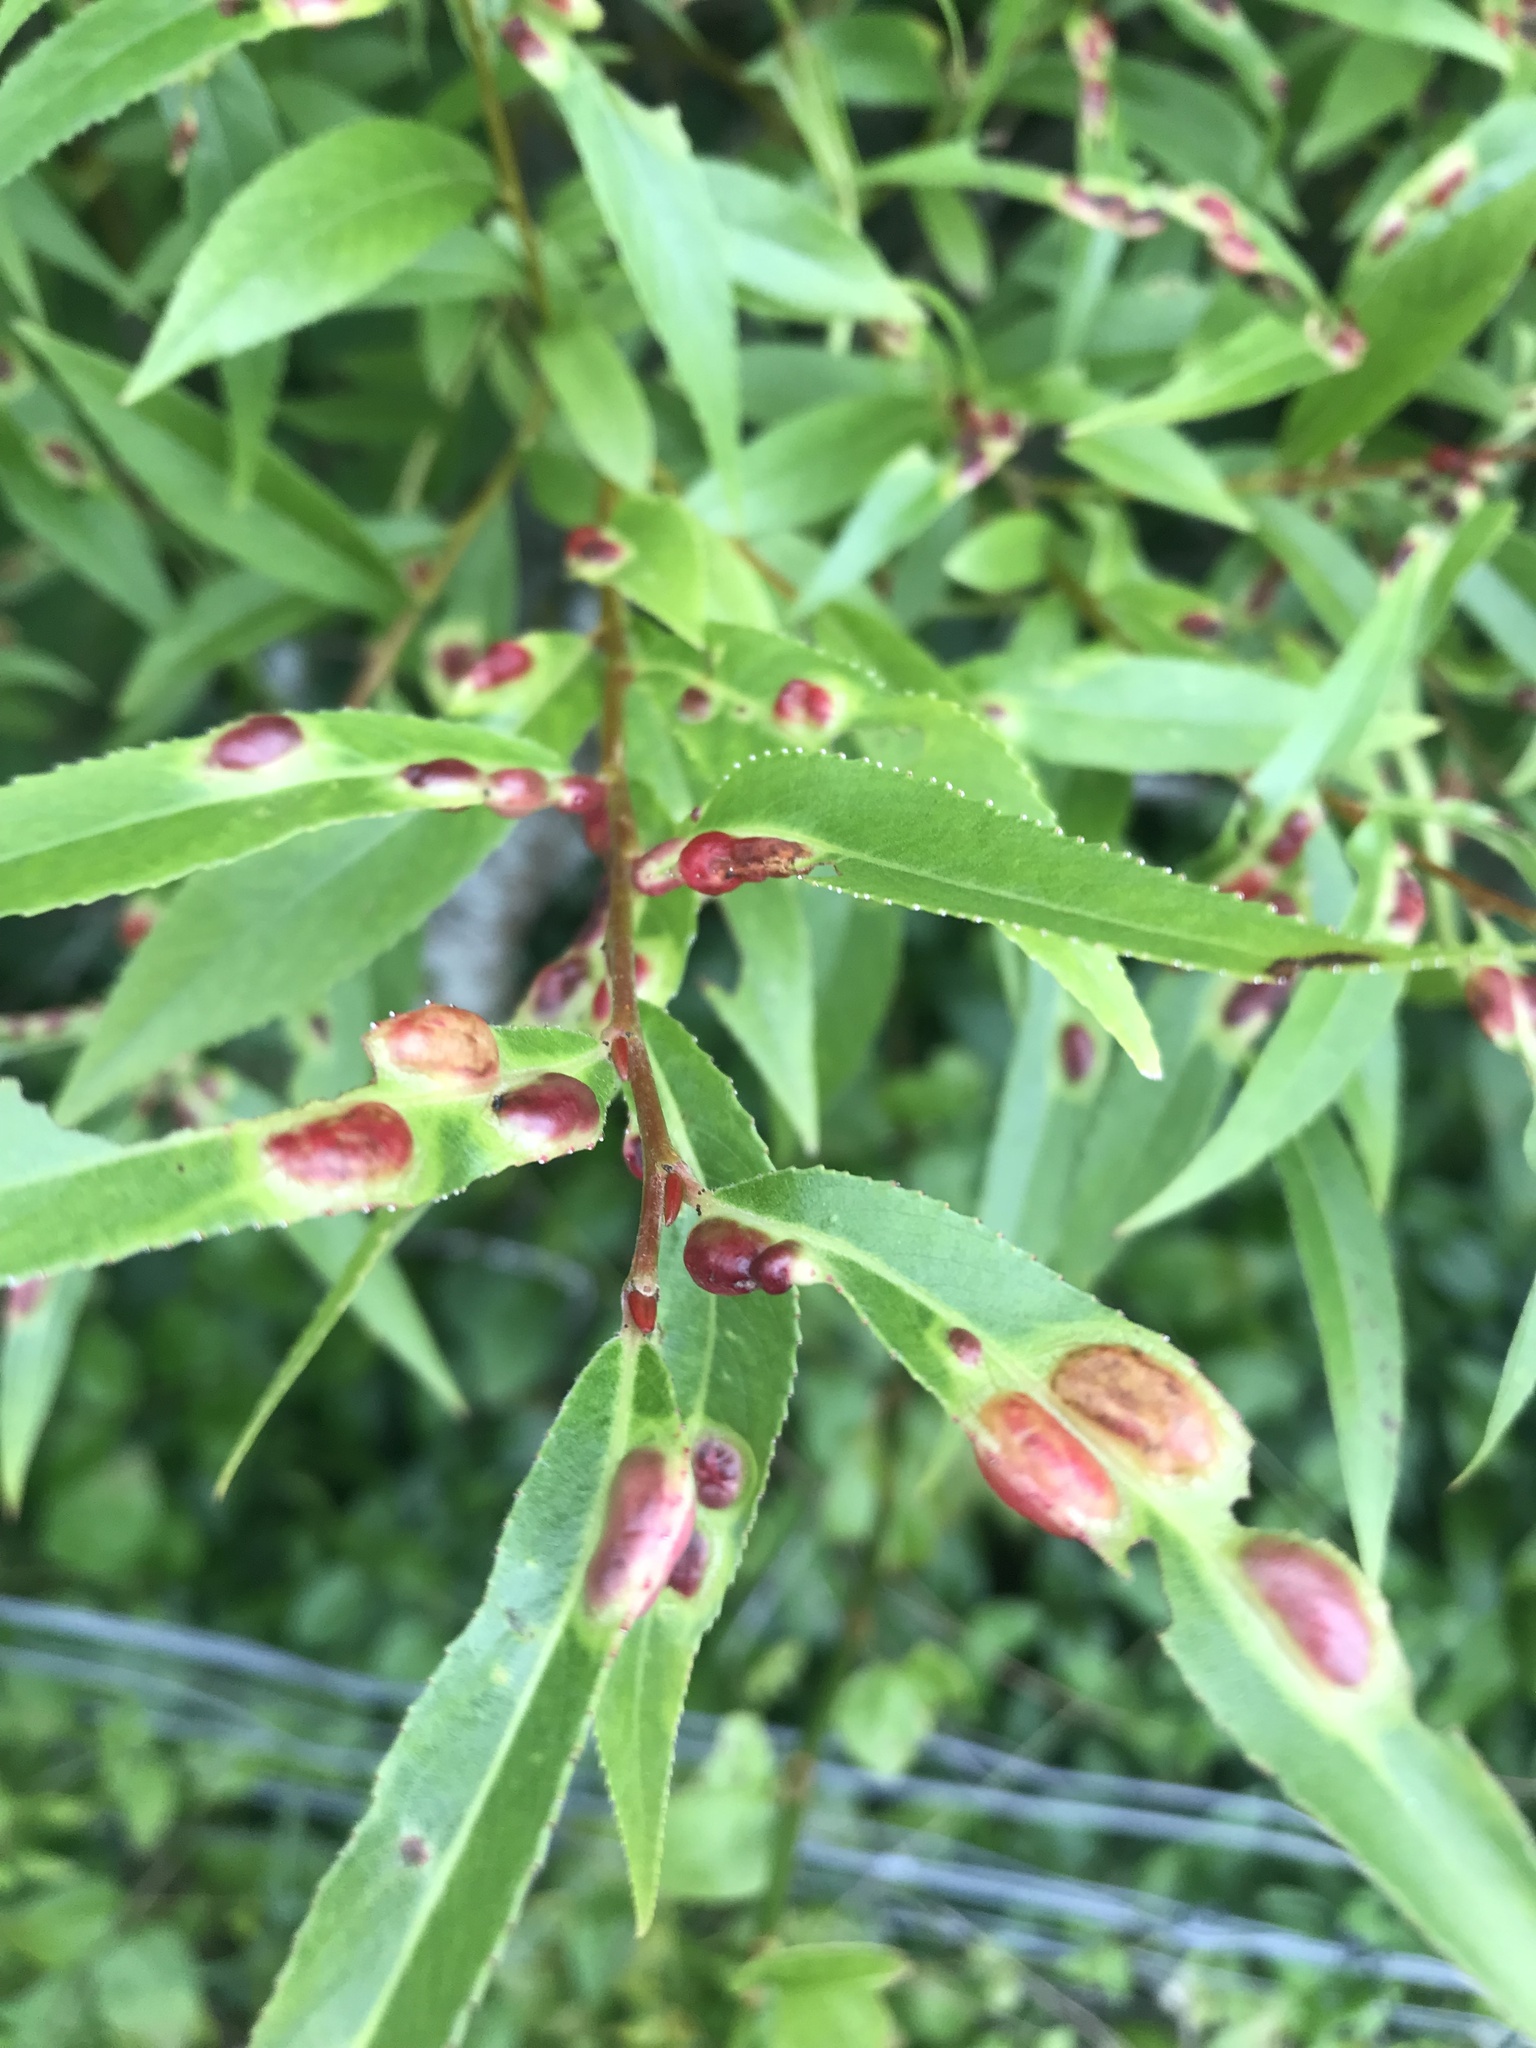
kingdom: Animalia
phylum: Arthropoda
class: Insecta
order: Hymenoptera
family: Tenthredinidae
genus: Pontania
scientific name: Pontania proxima
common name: Common sawfly
